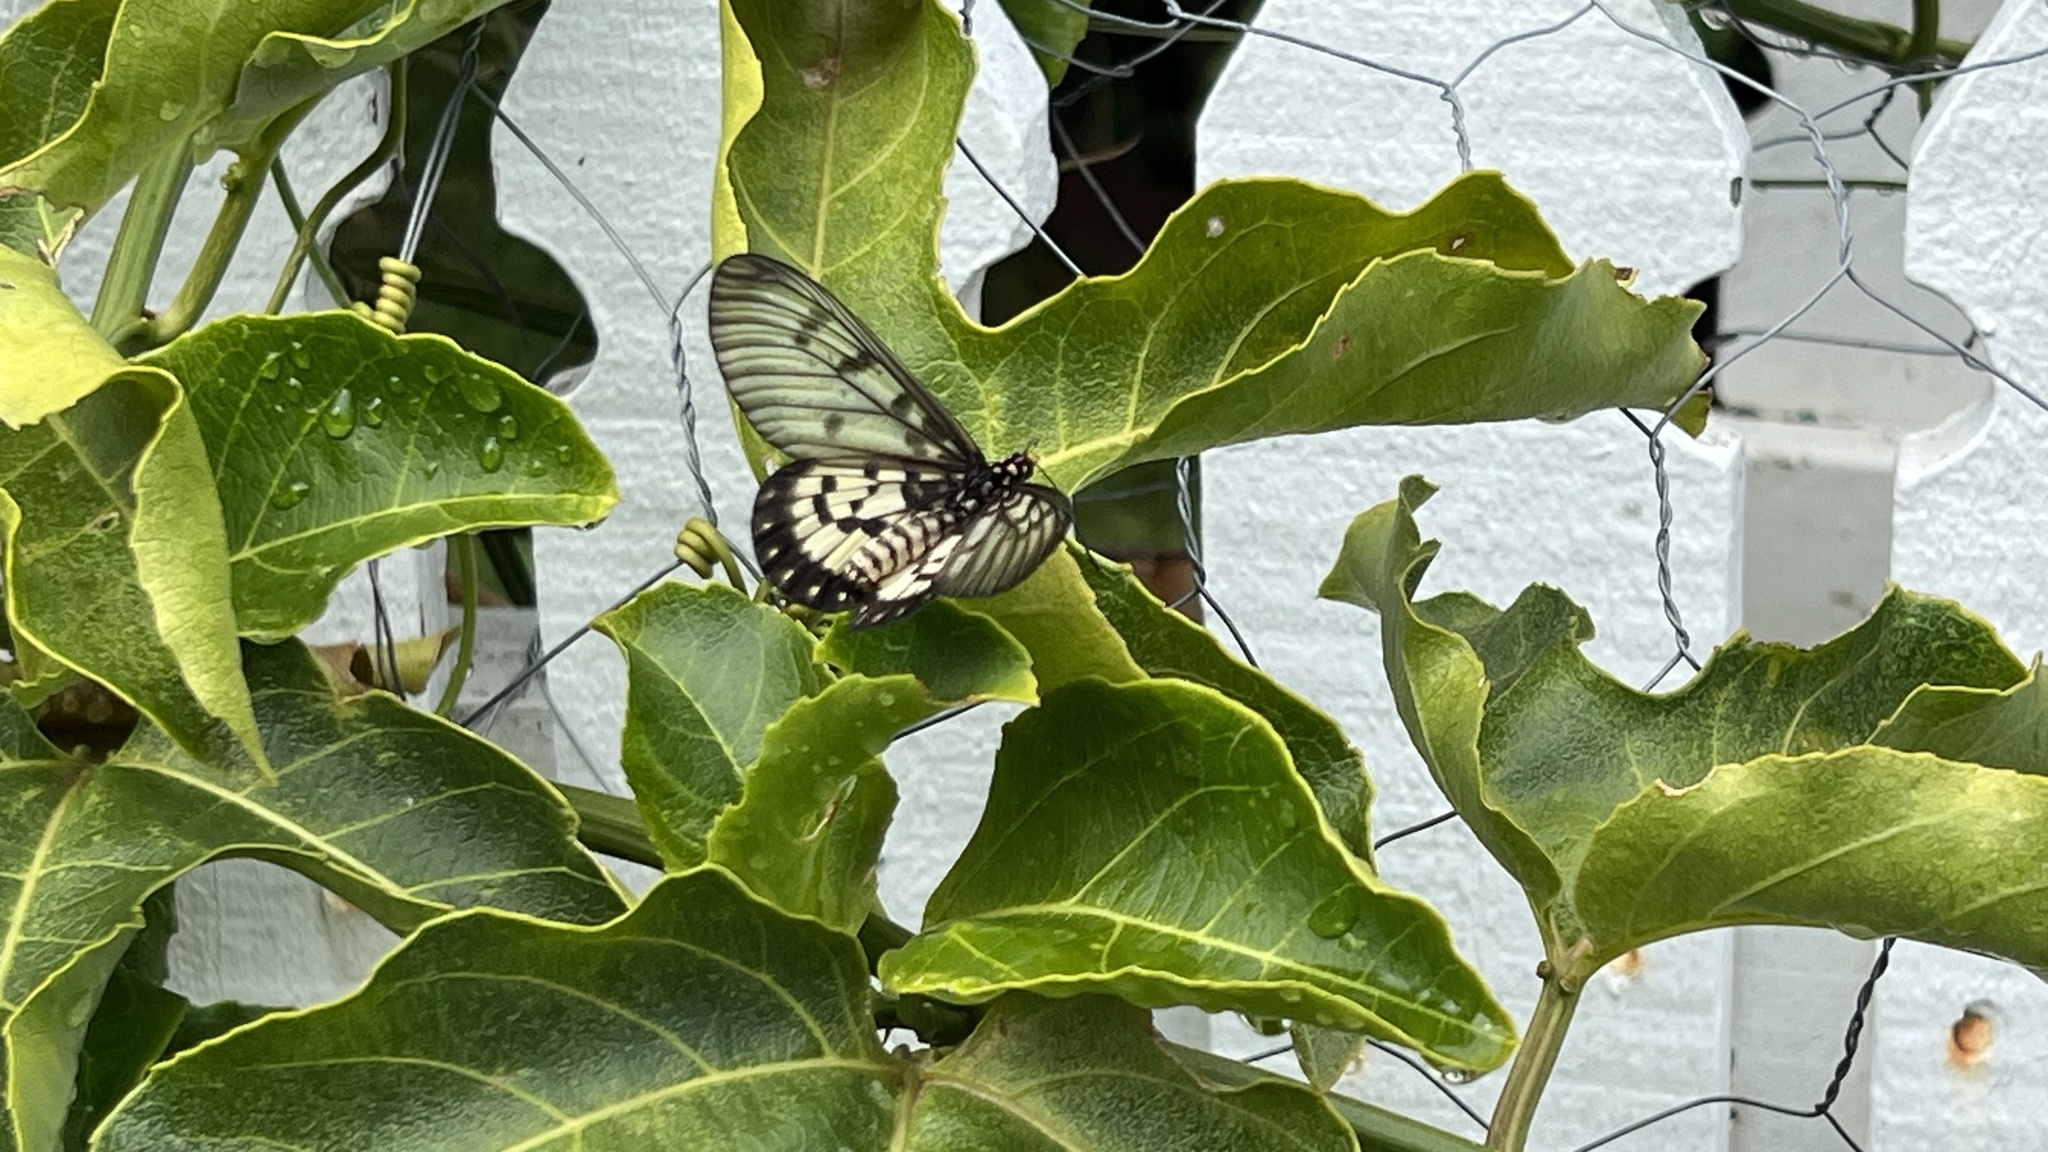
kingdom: Animalia
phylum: Arthropoda
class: Insecta
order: Lepidoptera
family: Nymphalidae
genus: Acraea
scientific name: Acraea andromacha
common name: Glasswing
